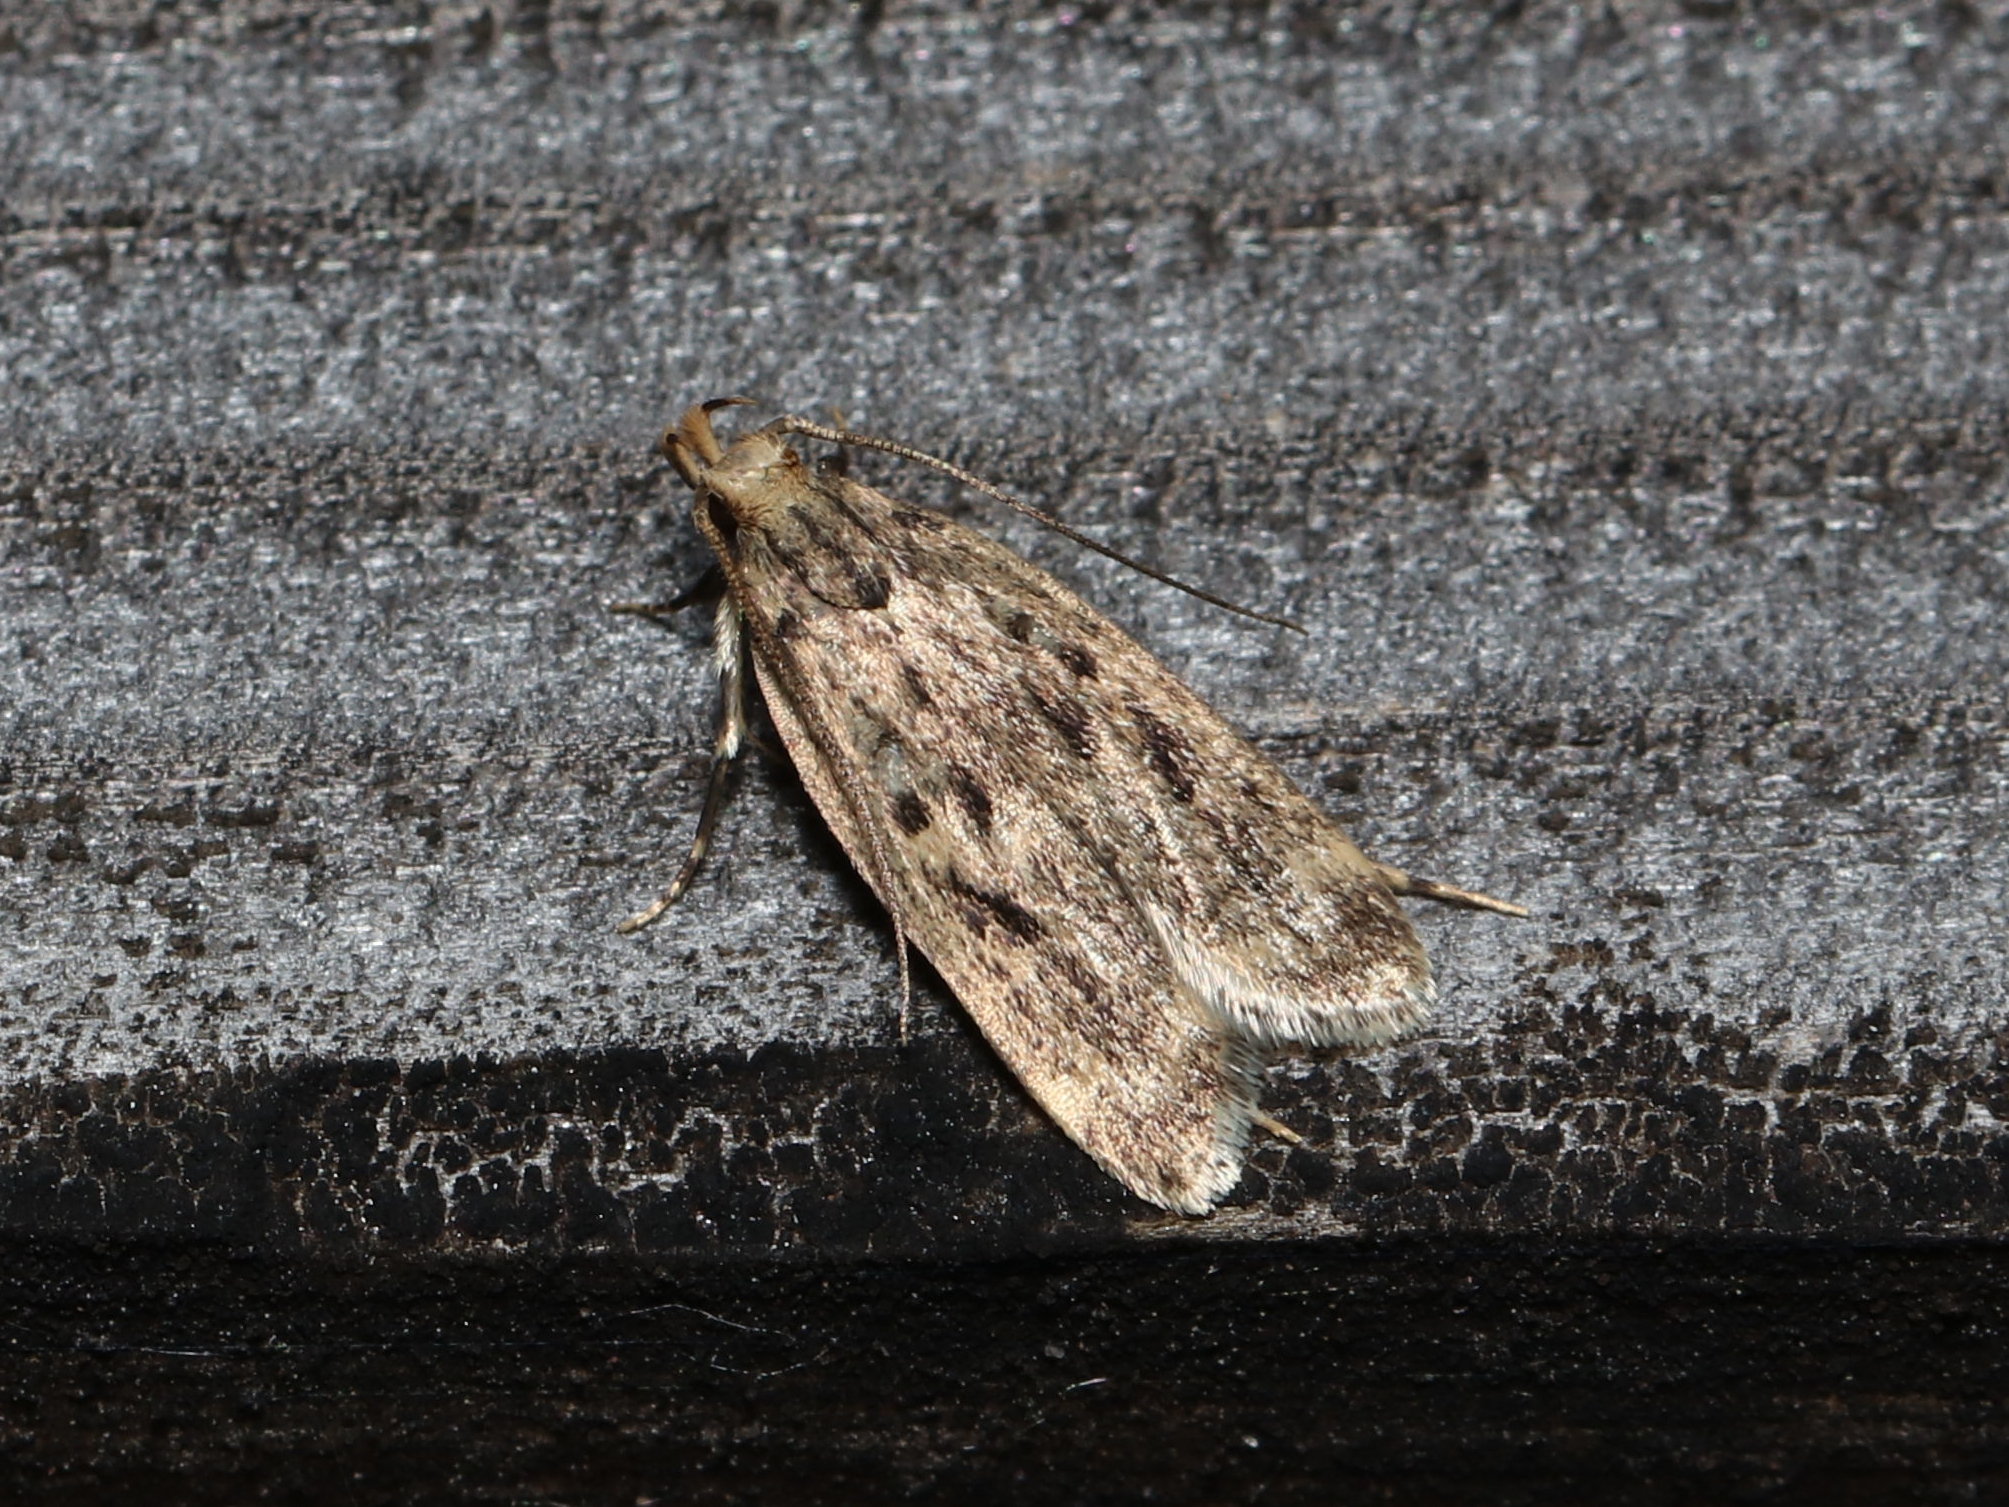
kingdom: Animalia
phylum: Arthropoda
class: Insecta
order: Lepidoptera
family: Lecithoceridae
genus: Martyringa
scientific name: Martyringa xeraula
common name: Himalayan grain moth
